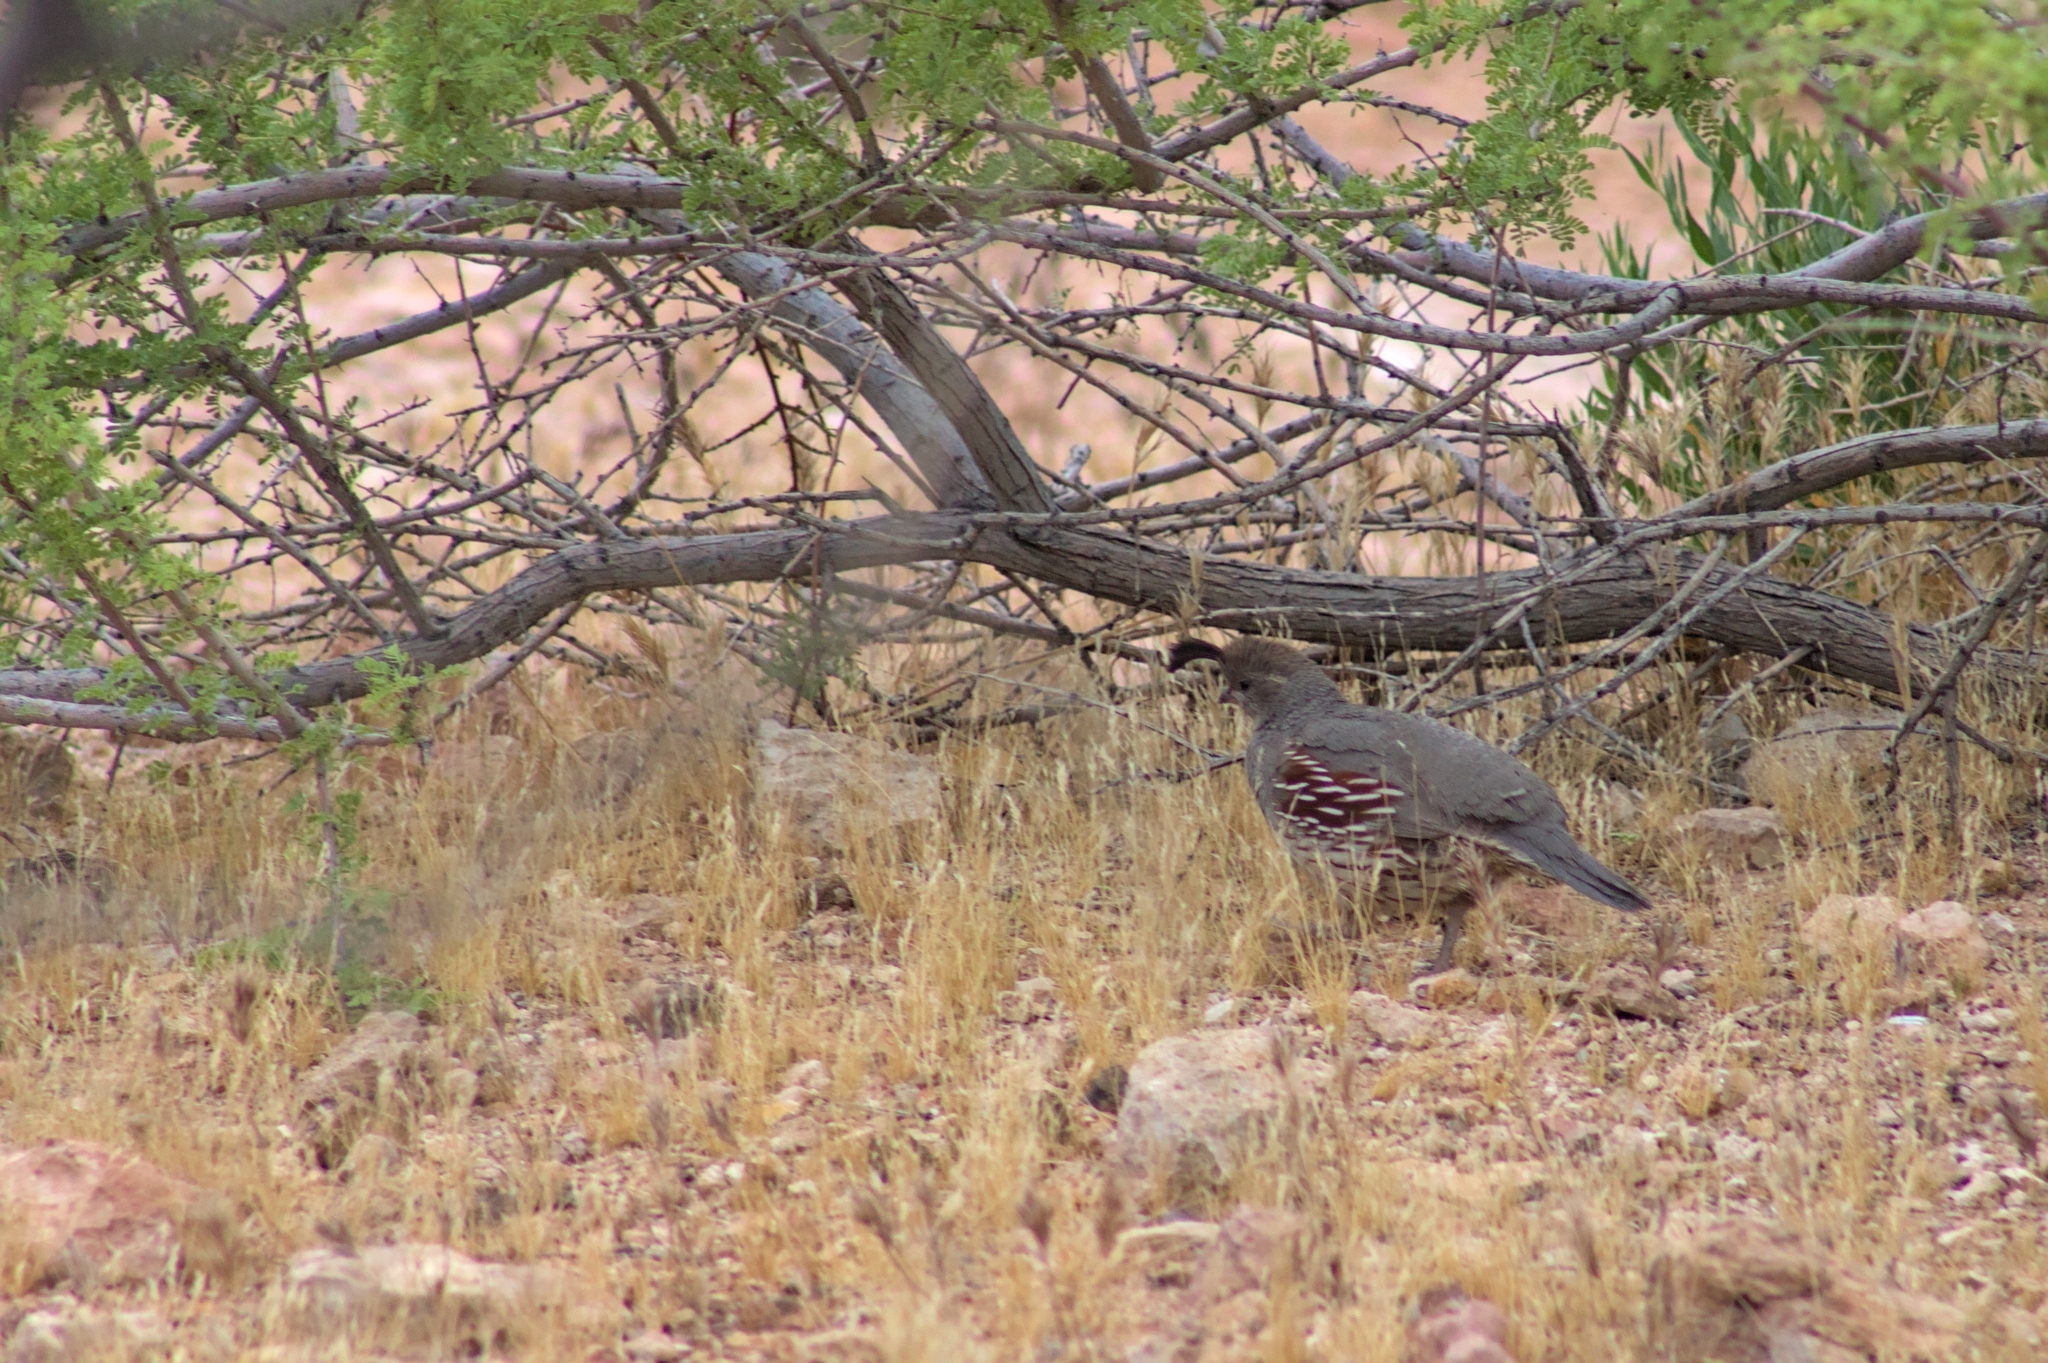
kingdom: Animalia
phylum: Chordata
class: Aves
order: Galliformes
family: Odontophoridae
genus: Callipepla
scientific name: Callipepla gambelii
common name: Gambel's quail
